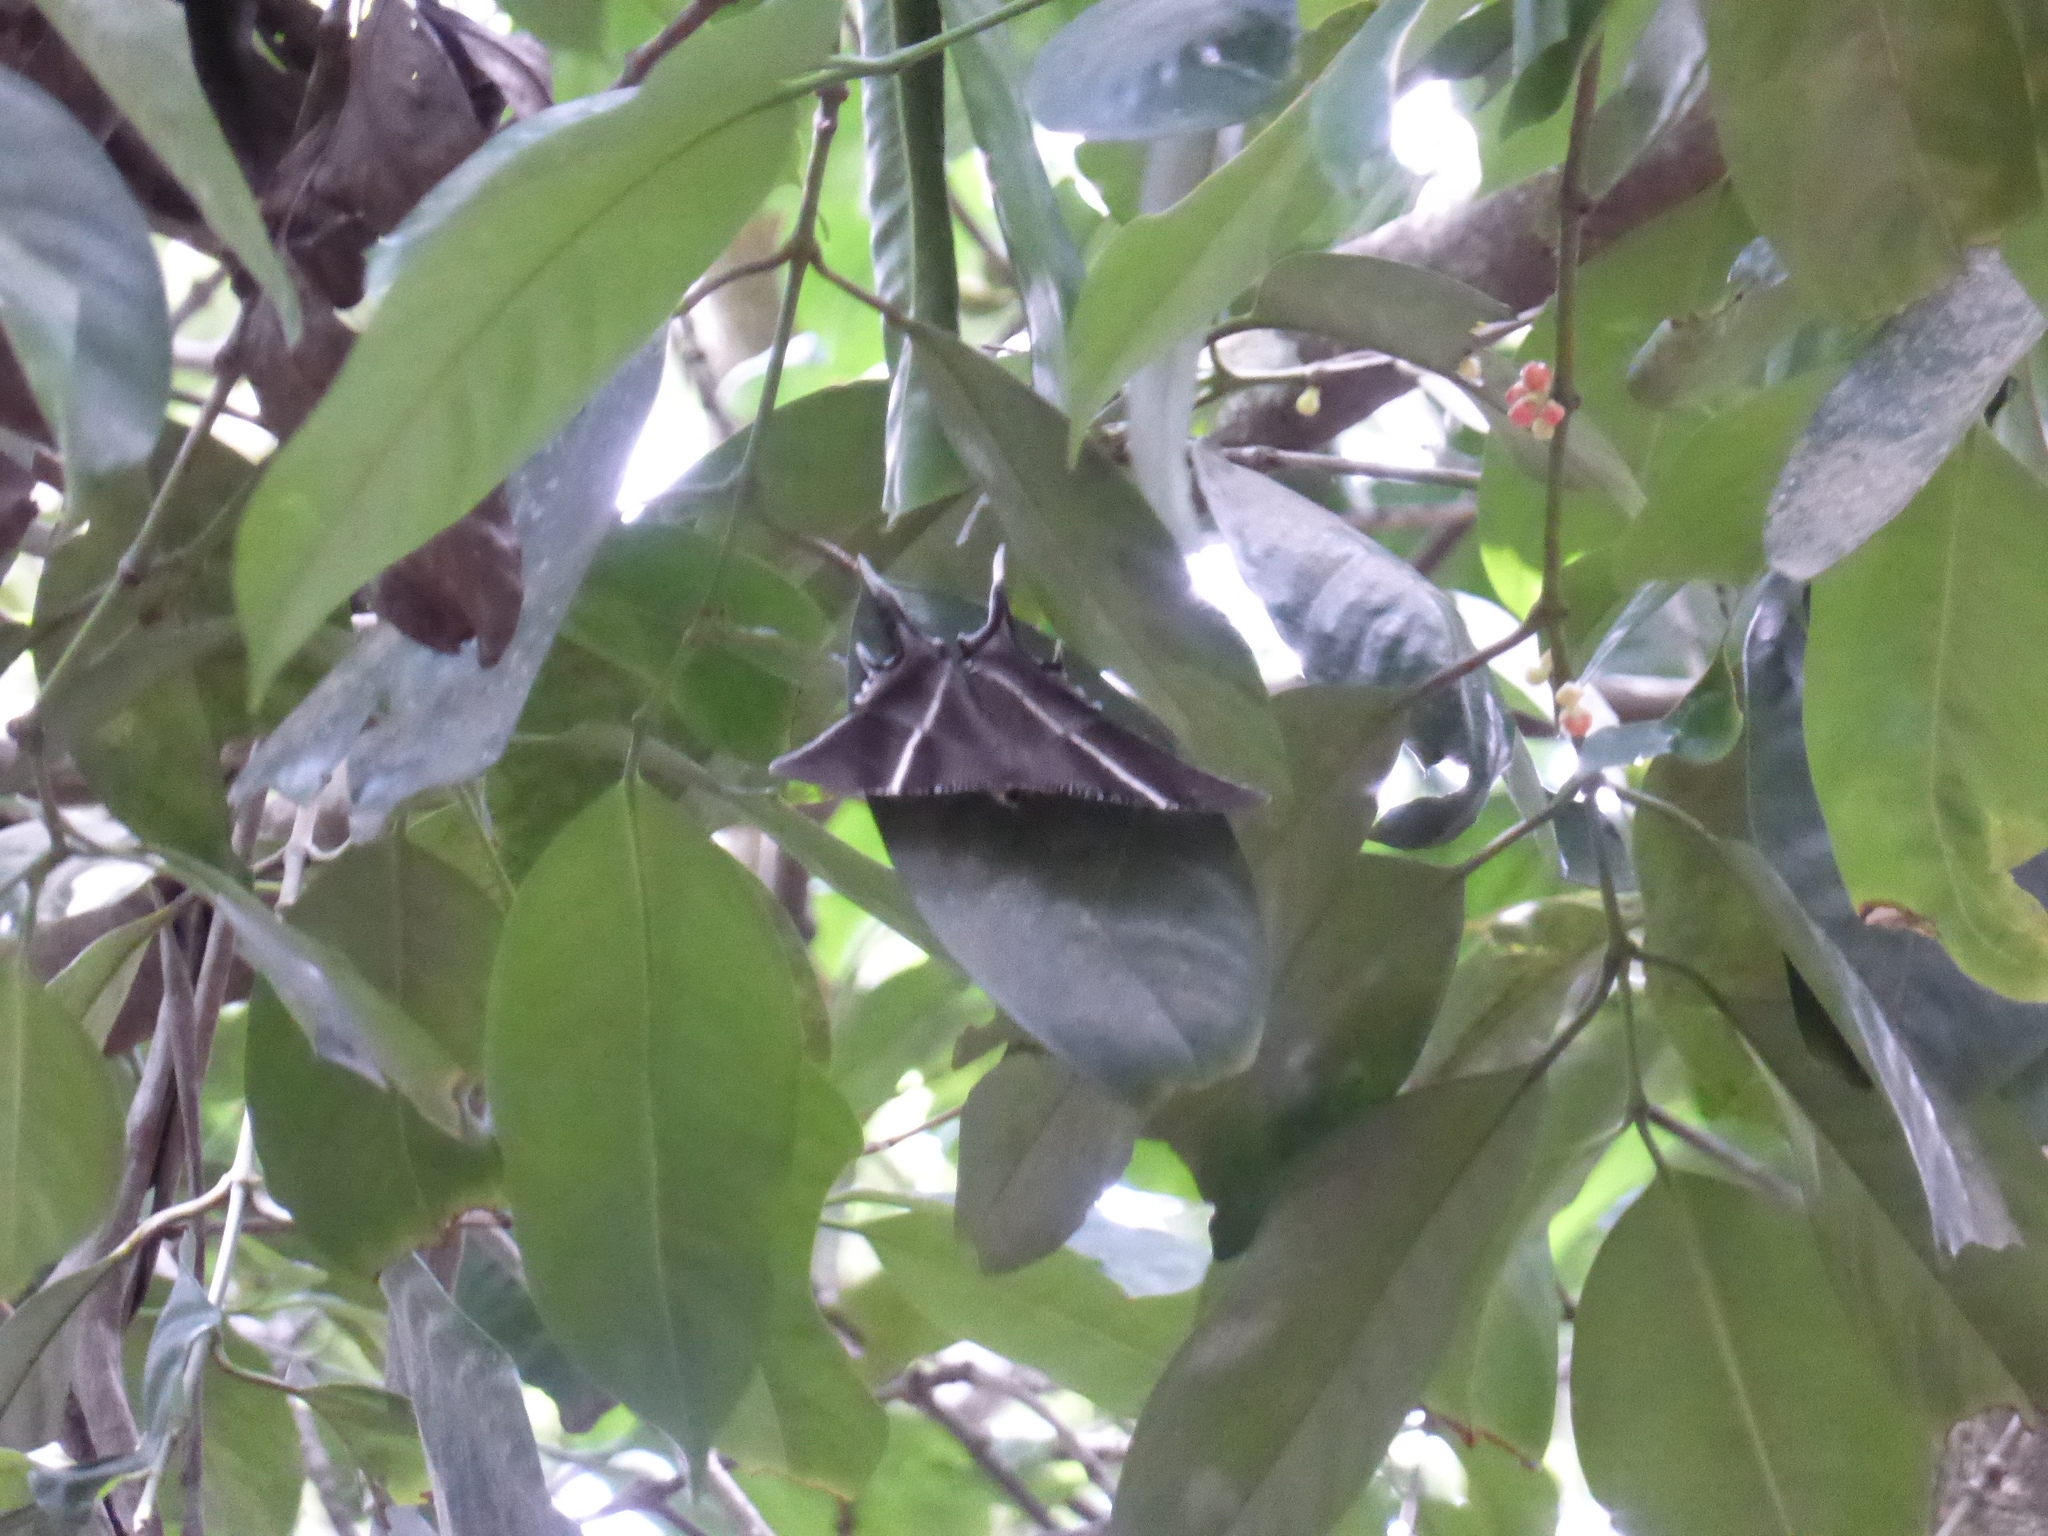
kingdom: Animalia
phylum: Arthropoda
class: Insecta
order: Lepidoptera
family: Uraniidae
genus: Lyssa
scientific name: Lyssa zampa
